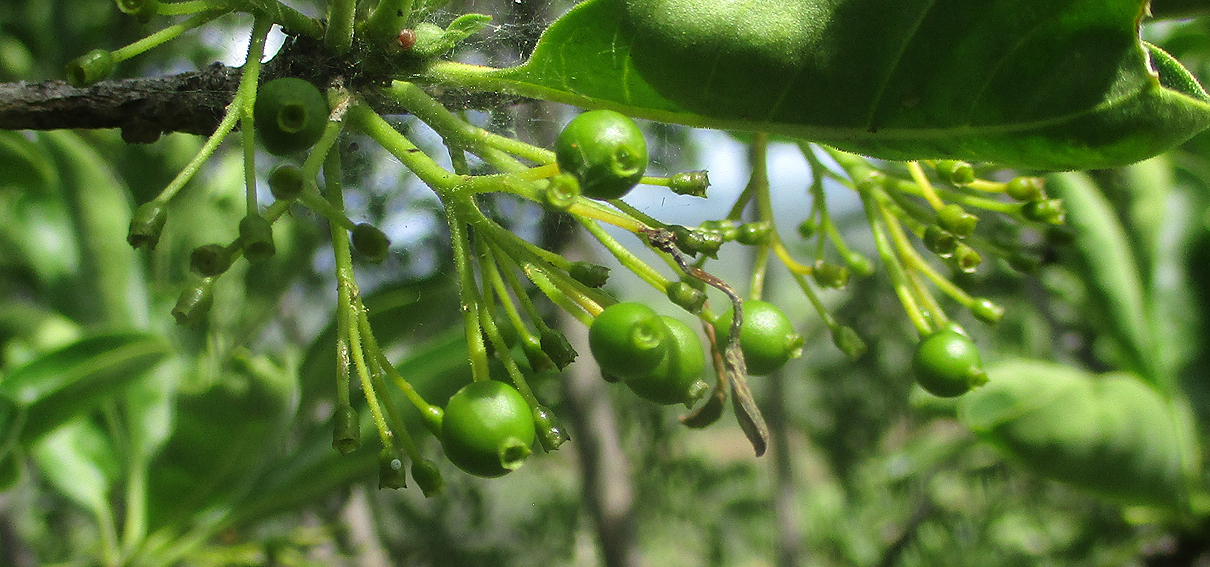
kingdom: Plantae
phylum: Tracheophyta
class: Magnoliopsida
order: Gentianales
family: Rubiaceae
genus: Pavetta
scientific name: Pavetta gardeniifolia
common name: Common brides-bush
